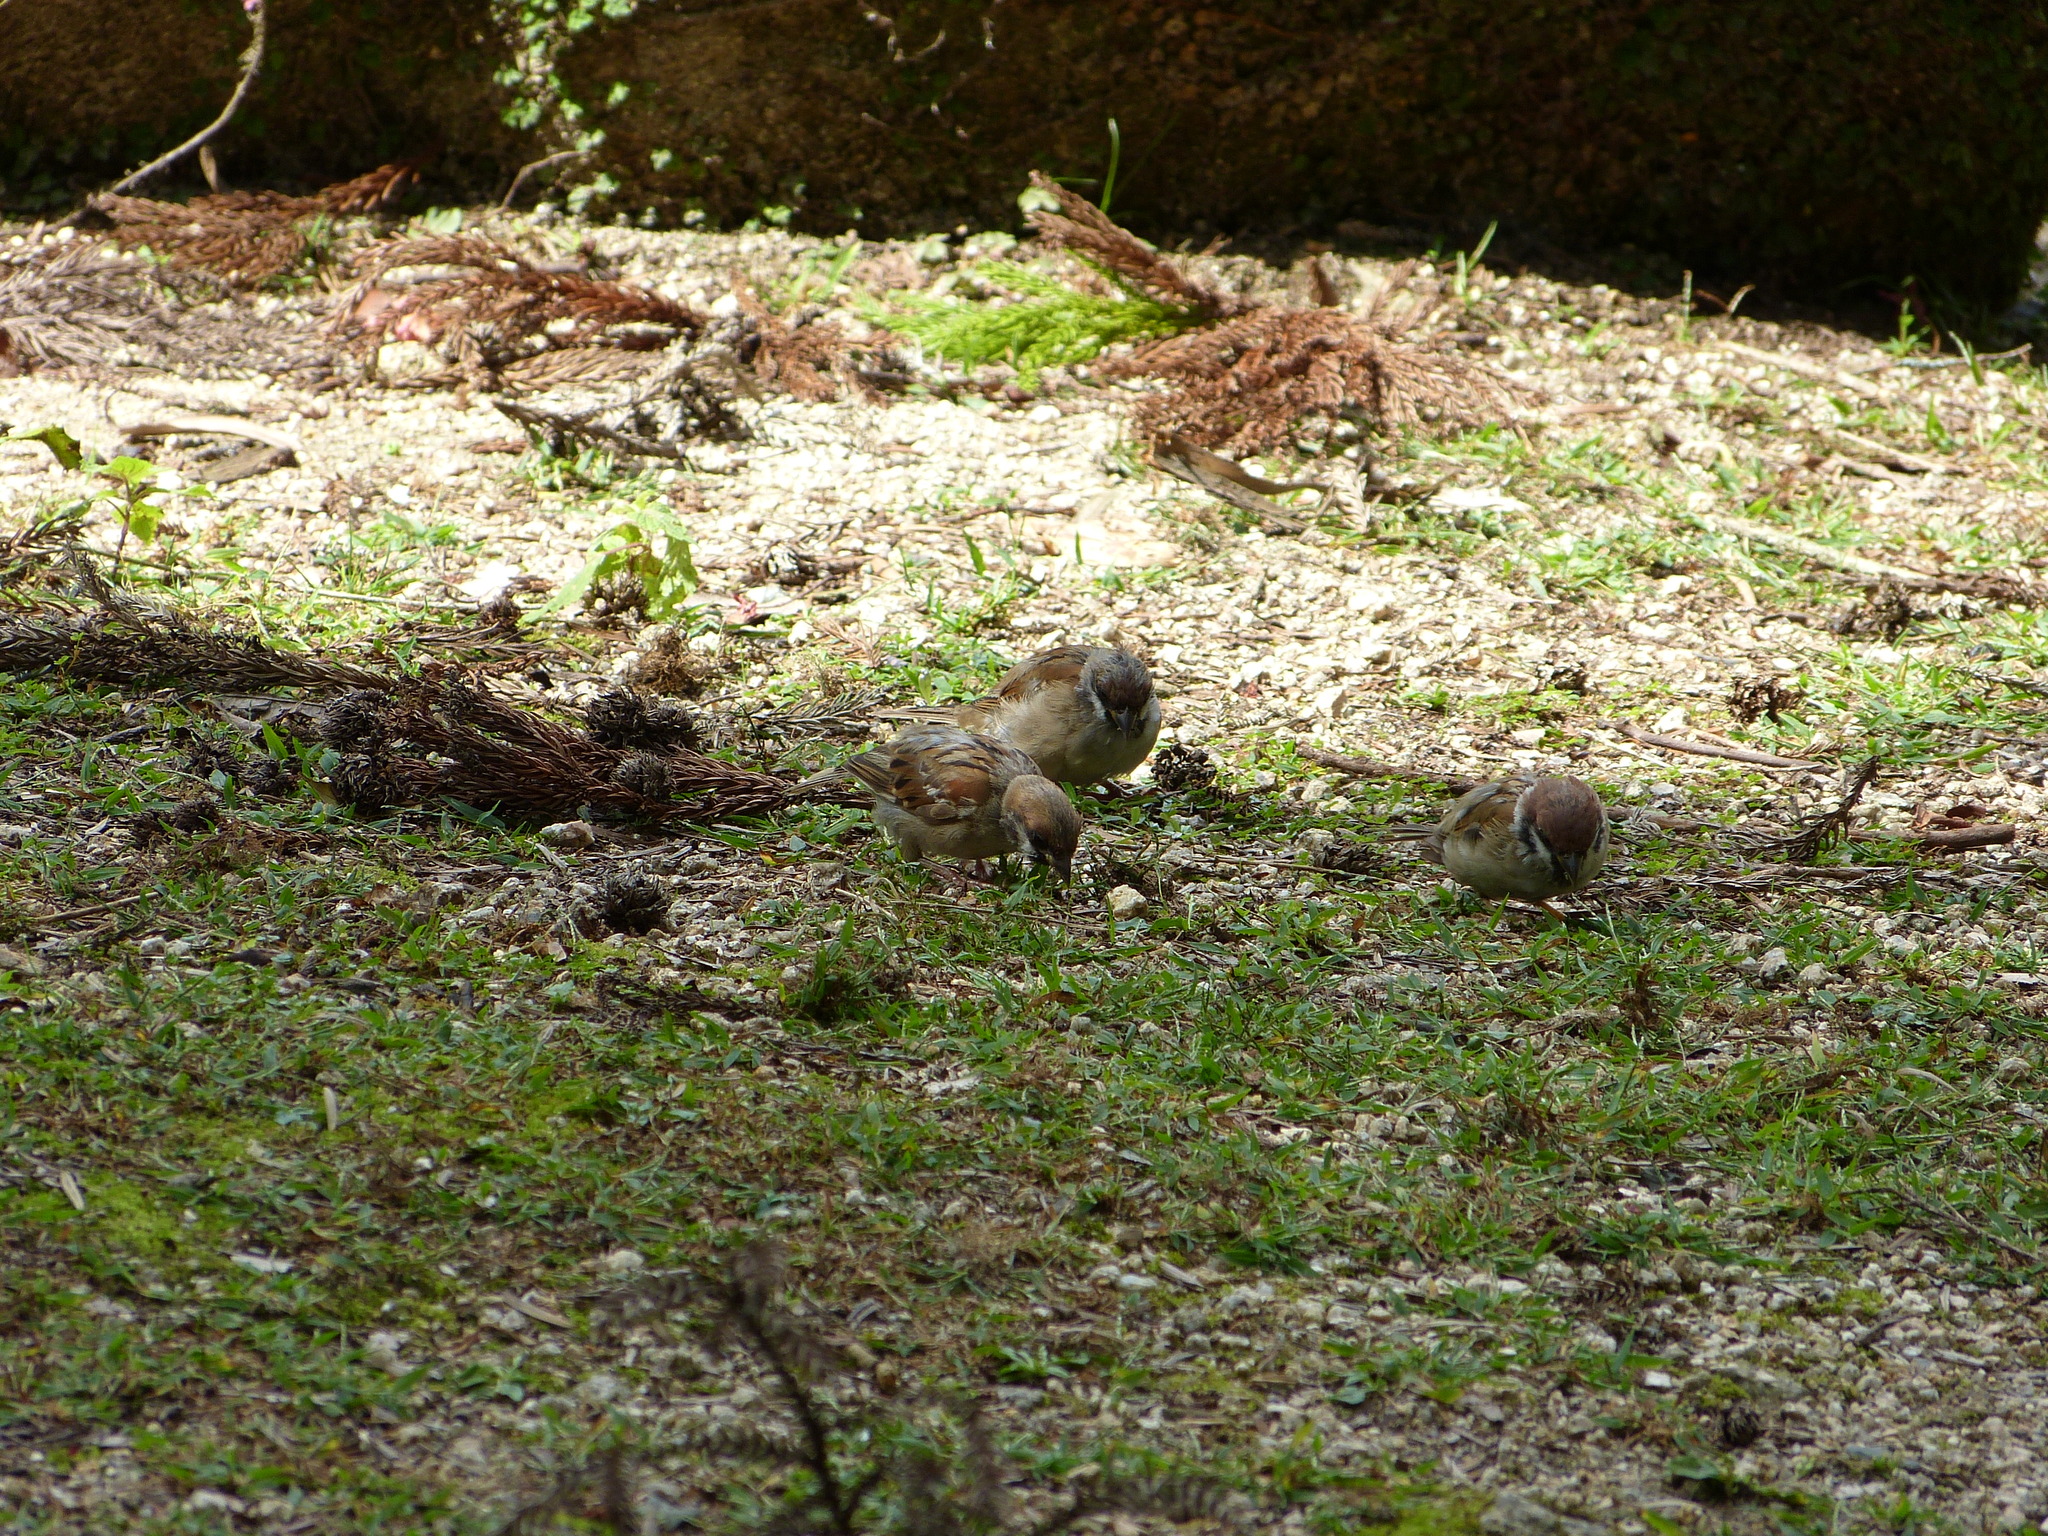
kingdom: Animalia
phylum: Chordata
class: Aves
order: Passeriformes
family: Passeridae
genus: Passer
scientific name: Passer montanus
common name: Eurasian tree sparrow
